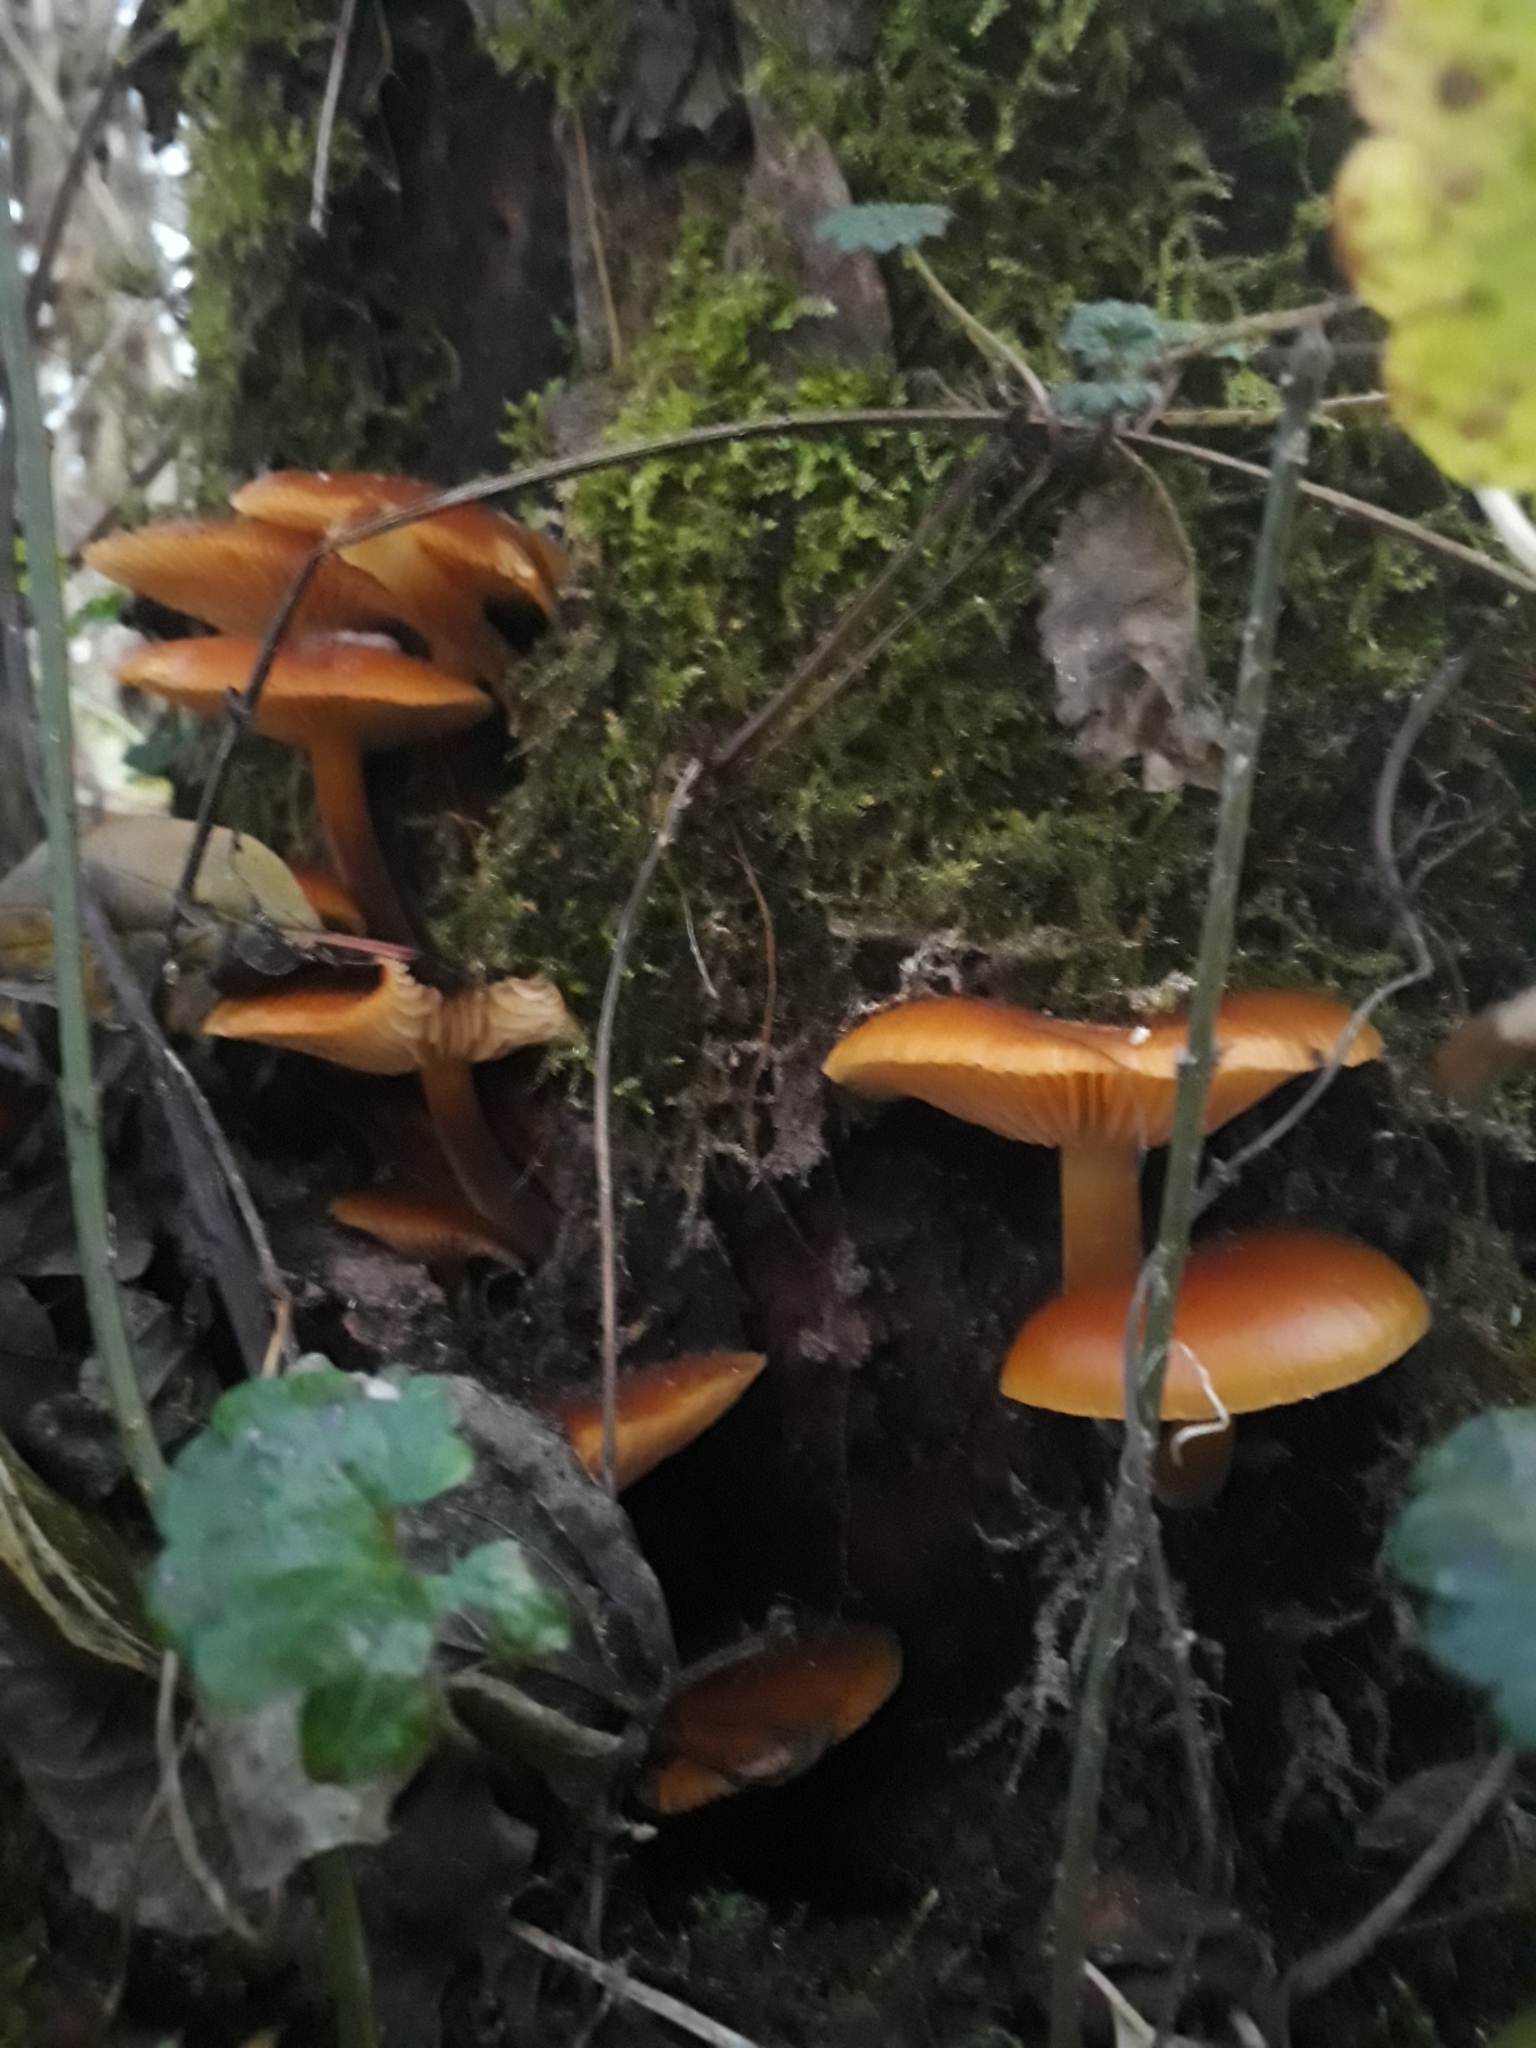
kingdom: Fungi
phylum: Basidiomycota
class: Agaricomycetes
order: Agaricales
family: Physalacriaceae
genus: Flammulina
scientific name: Flammulina
